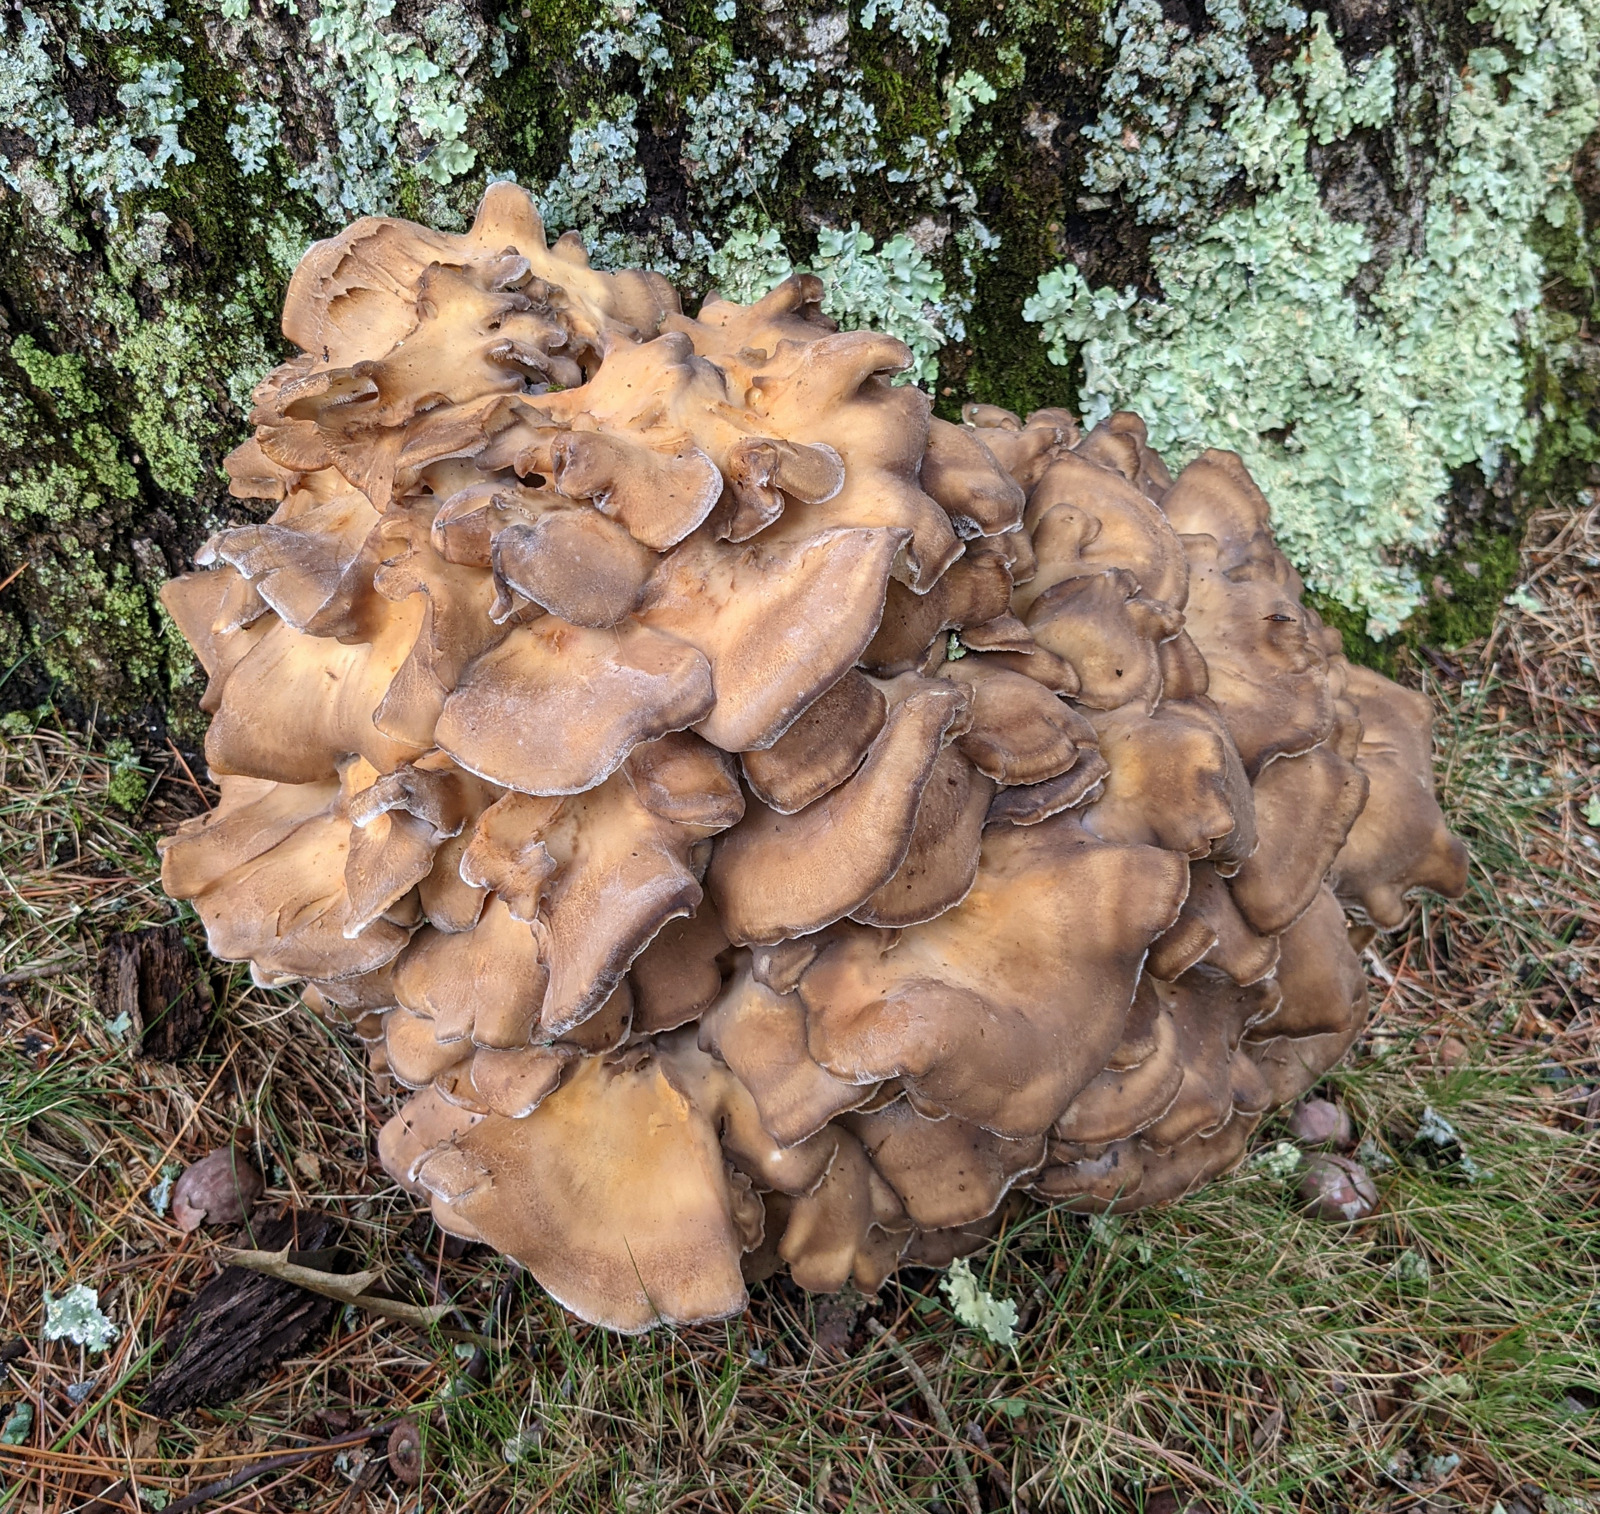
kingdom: Fungi
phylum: Basidiomycota
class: Agaricomycetes
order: Polyporales
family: Grifolaceae
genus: Grifola
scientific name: Grifola frondosa
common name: Hen of the woods
